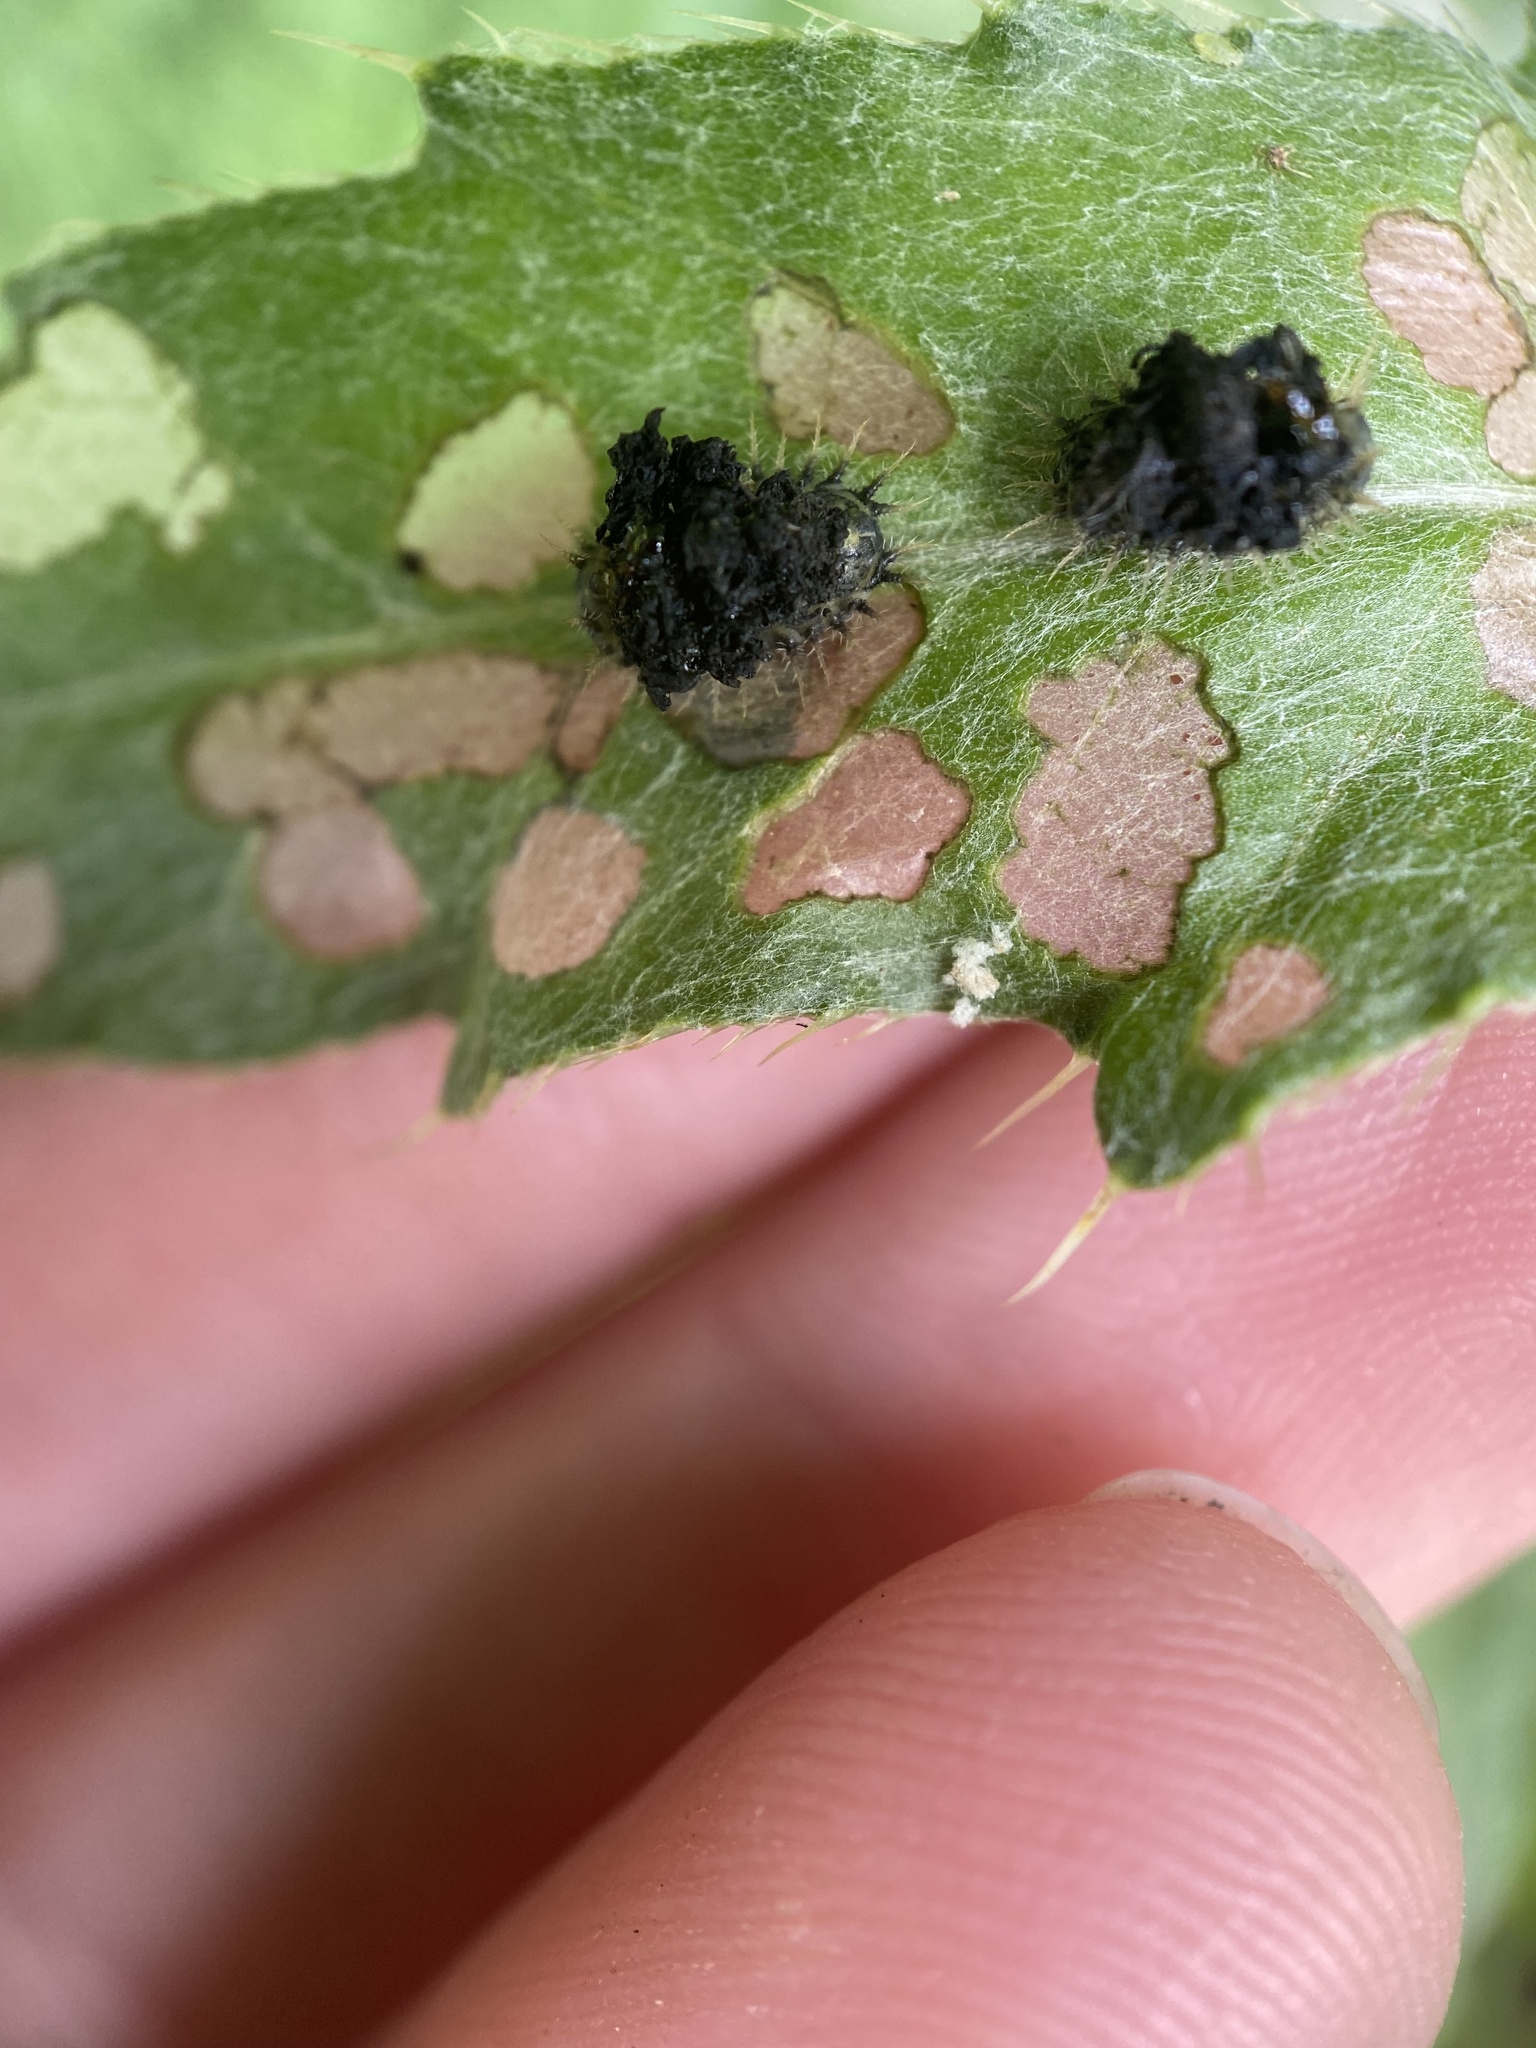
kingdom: Animalia
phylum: Arthropoda
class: Insecta
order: Coleoptera
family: Chrysomelidae
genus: Cassida
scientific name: Cassida rubiginosa
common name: Thistle tortoise beetle
